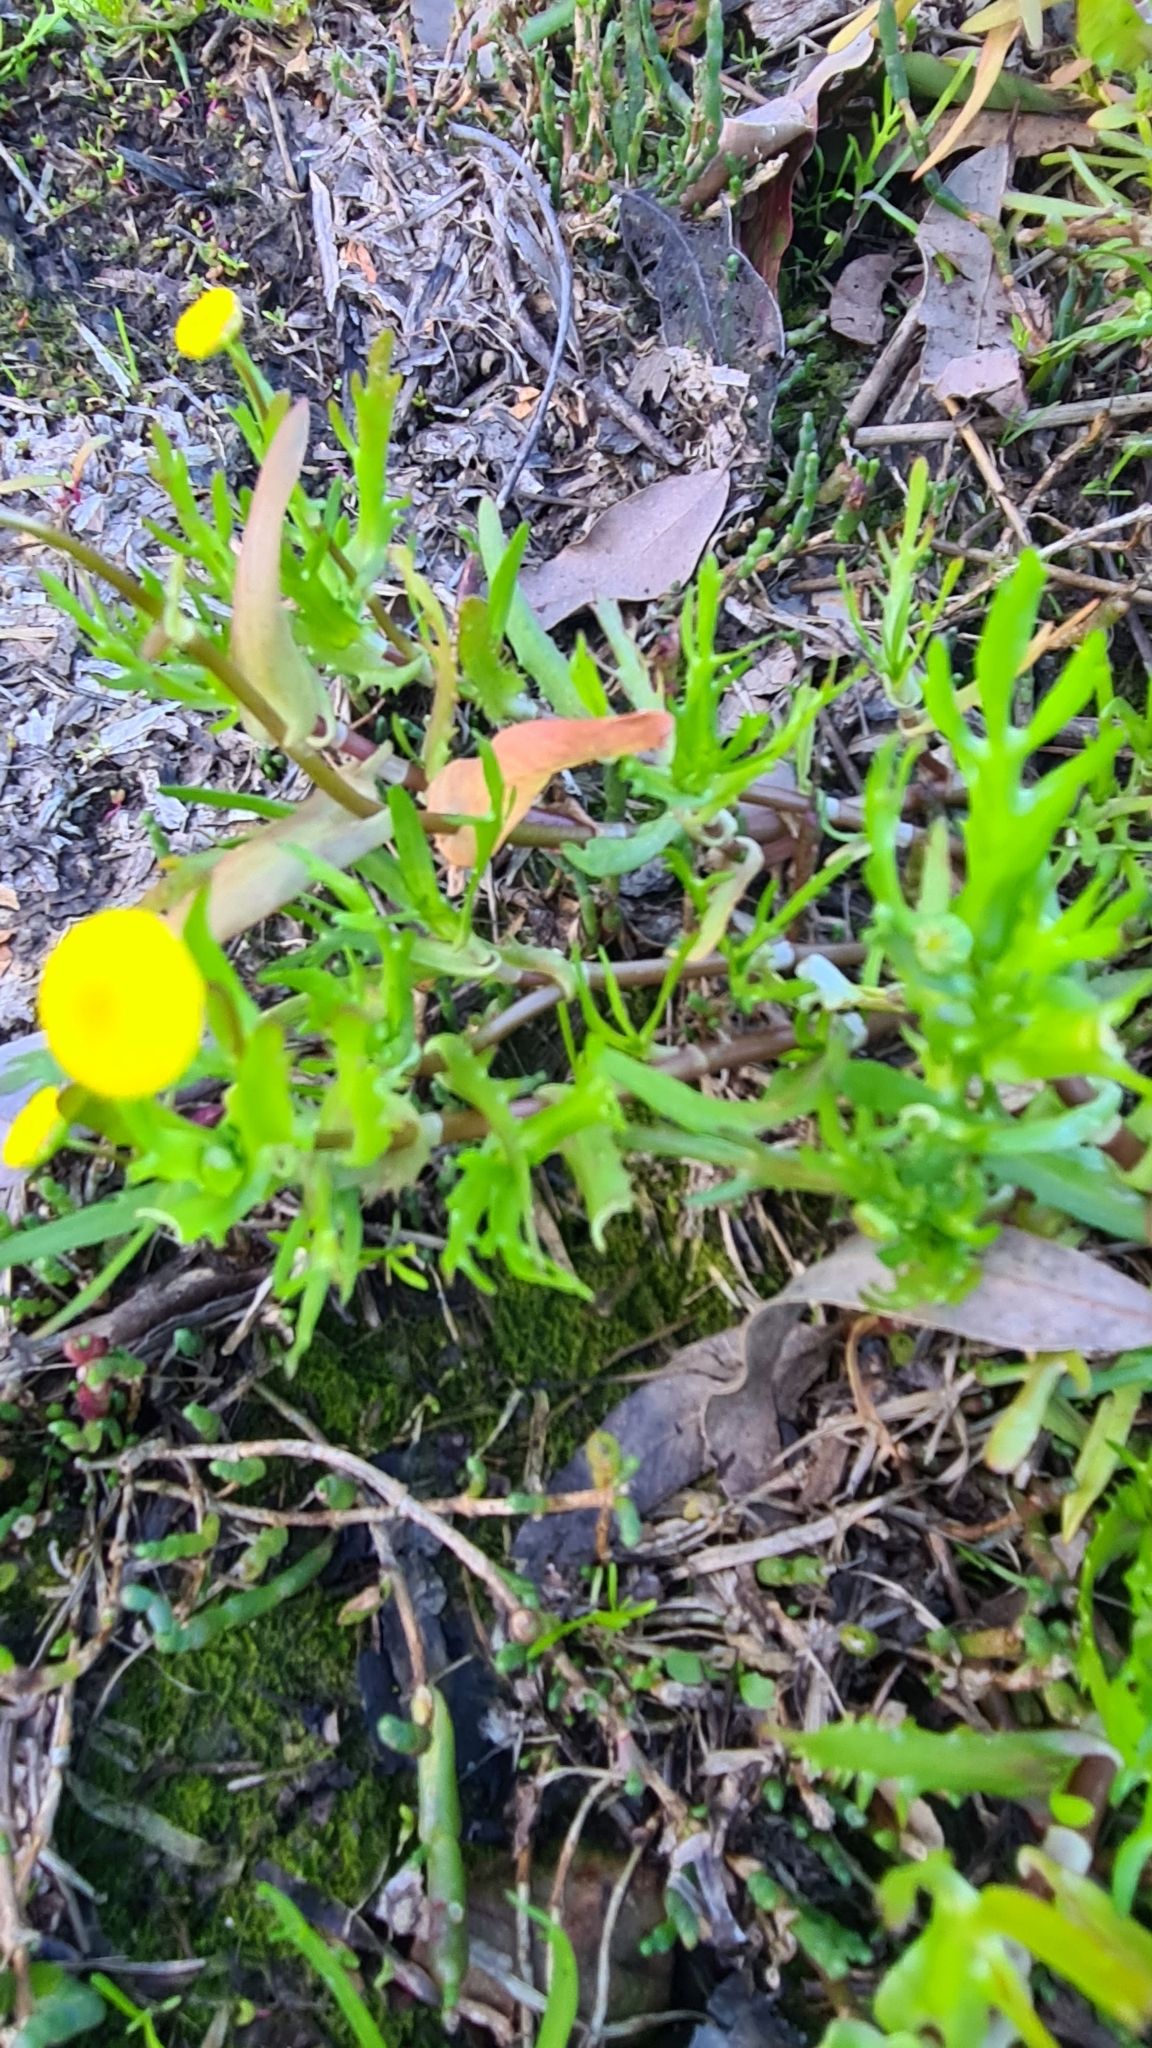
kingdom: Plantae
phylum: Tracheophyta
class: Magnoliopsida
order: Asterales
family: Asteraceae
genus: Cotula
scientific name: Cotula coronopifolia
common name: Buttonweed
